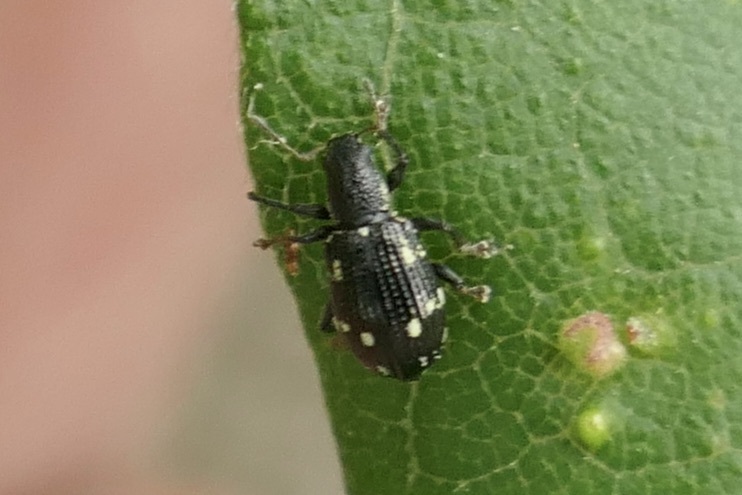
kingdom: Animalia
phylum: Arthropoda
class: Insecta
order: Coleoptera
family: Curculionidae
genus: Polydrusus
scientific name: Polydrusus picus
